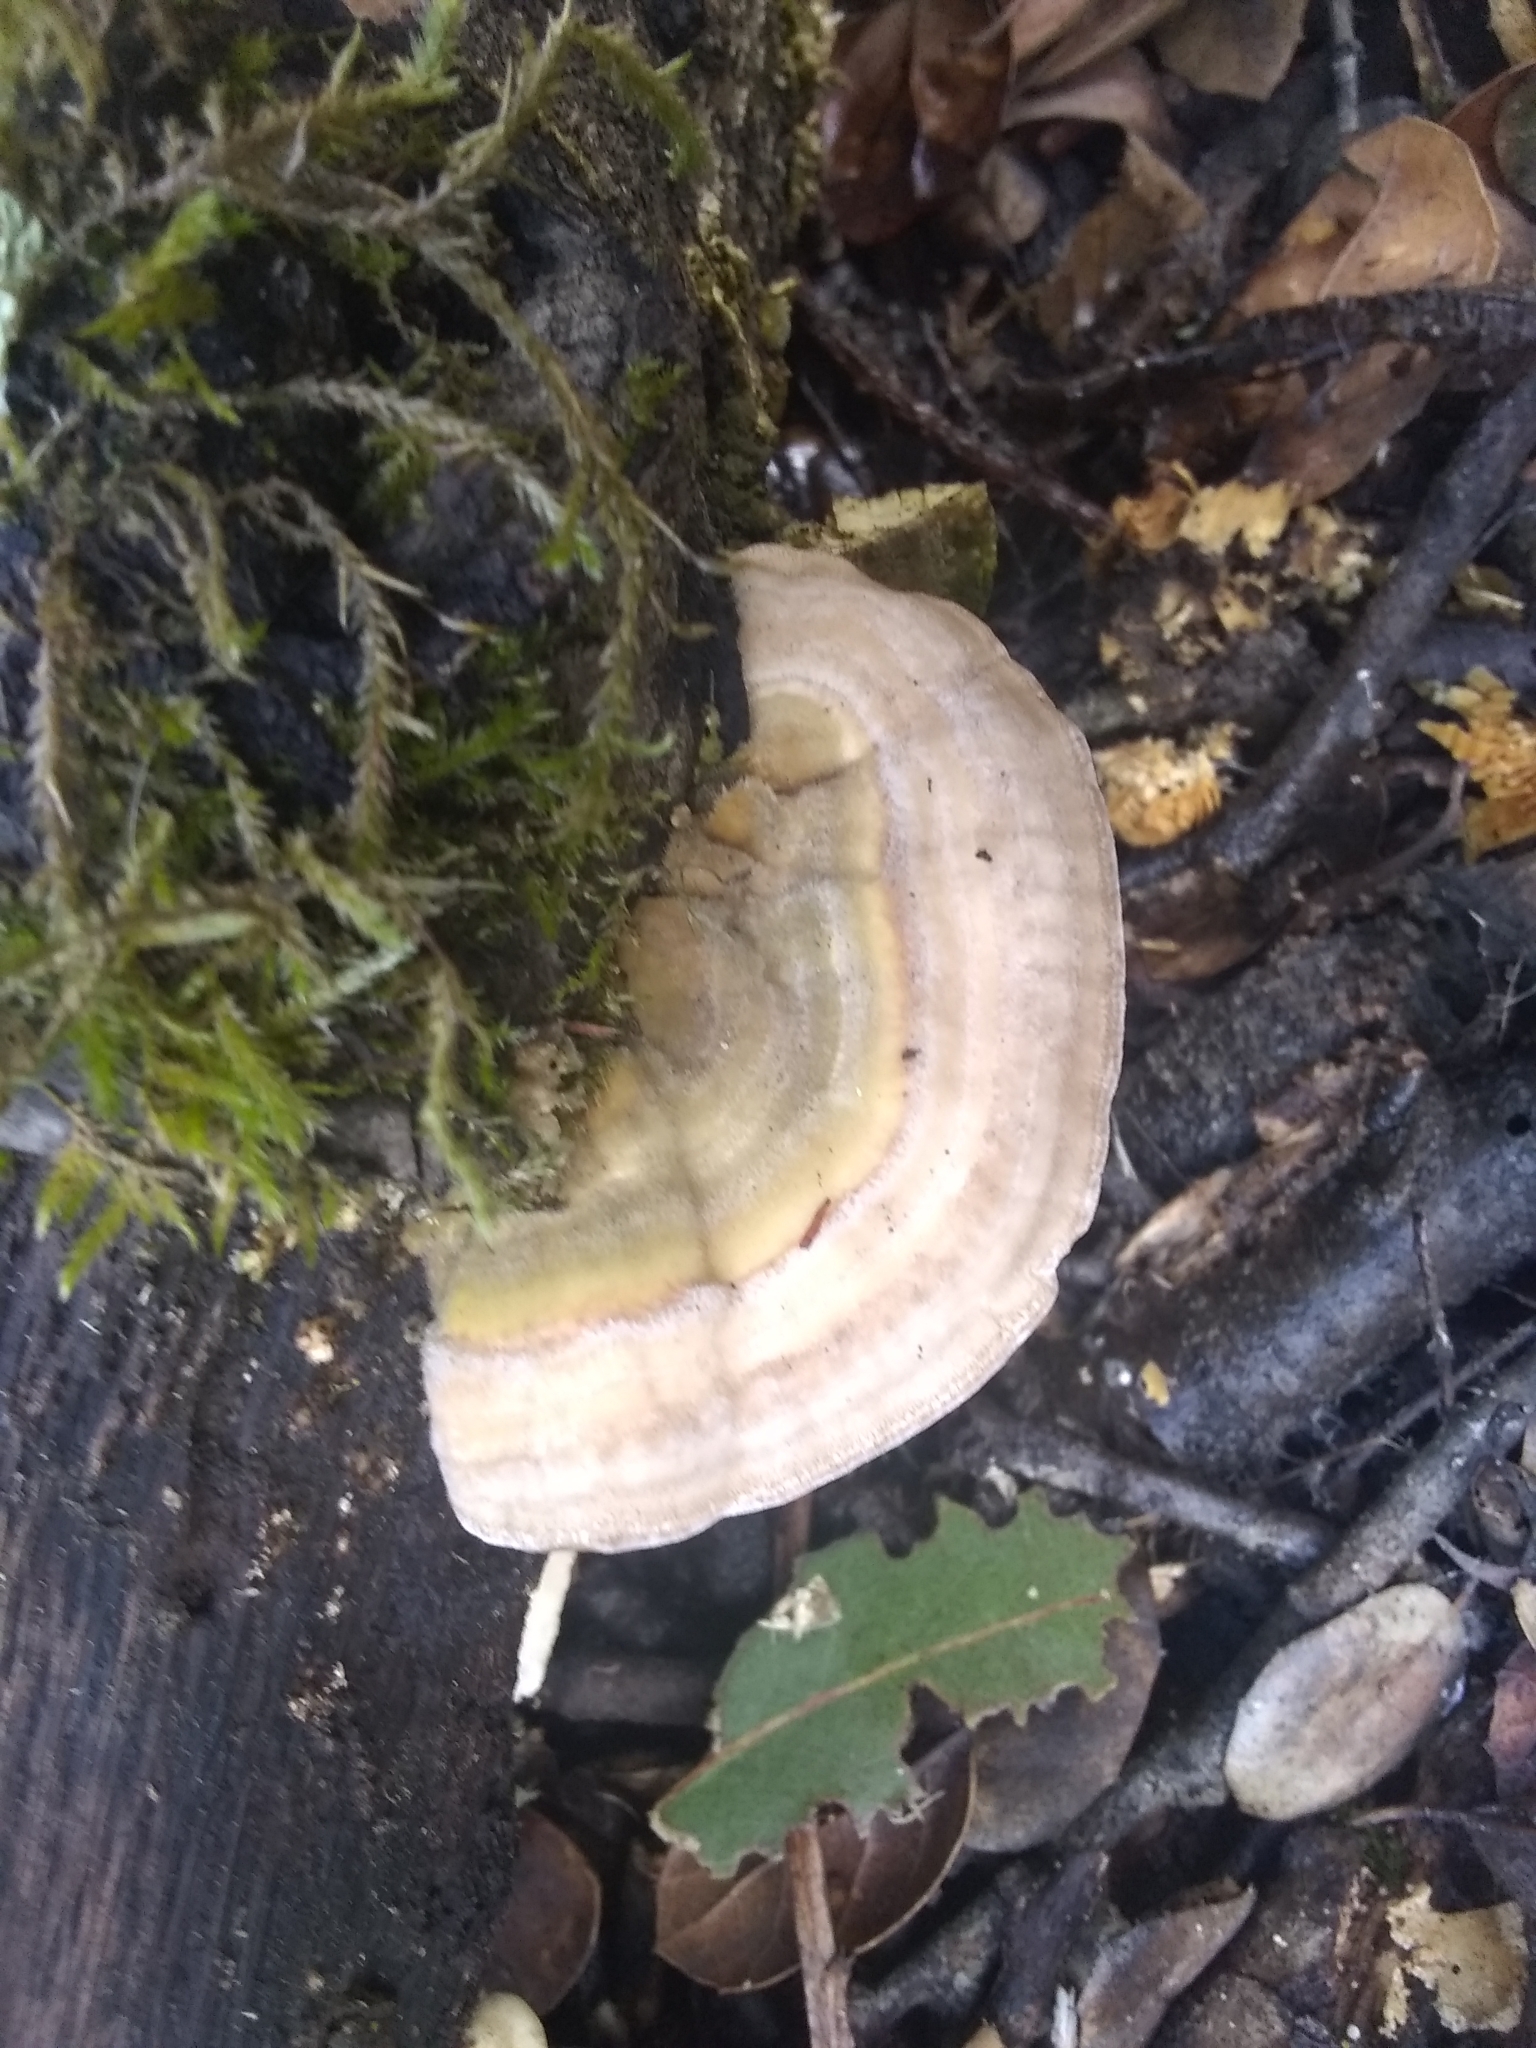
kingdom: Fungi
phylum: Basidiomycota
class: Agaricomycetes
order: Polyporales
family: Polyporaceae
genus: Lenzites
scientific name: Lenzites betulinus
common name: Birch mazegill
